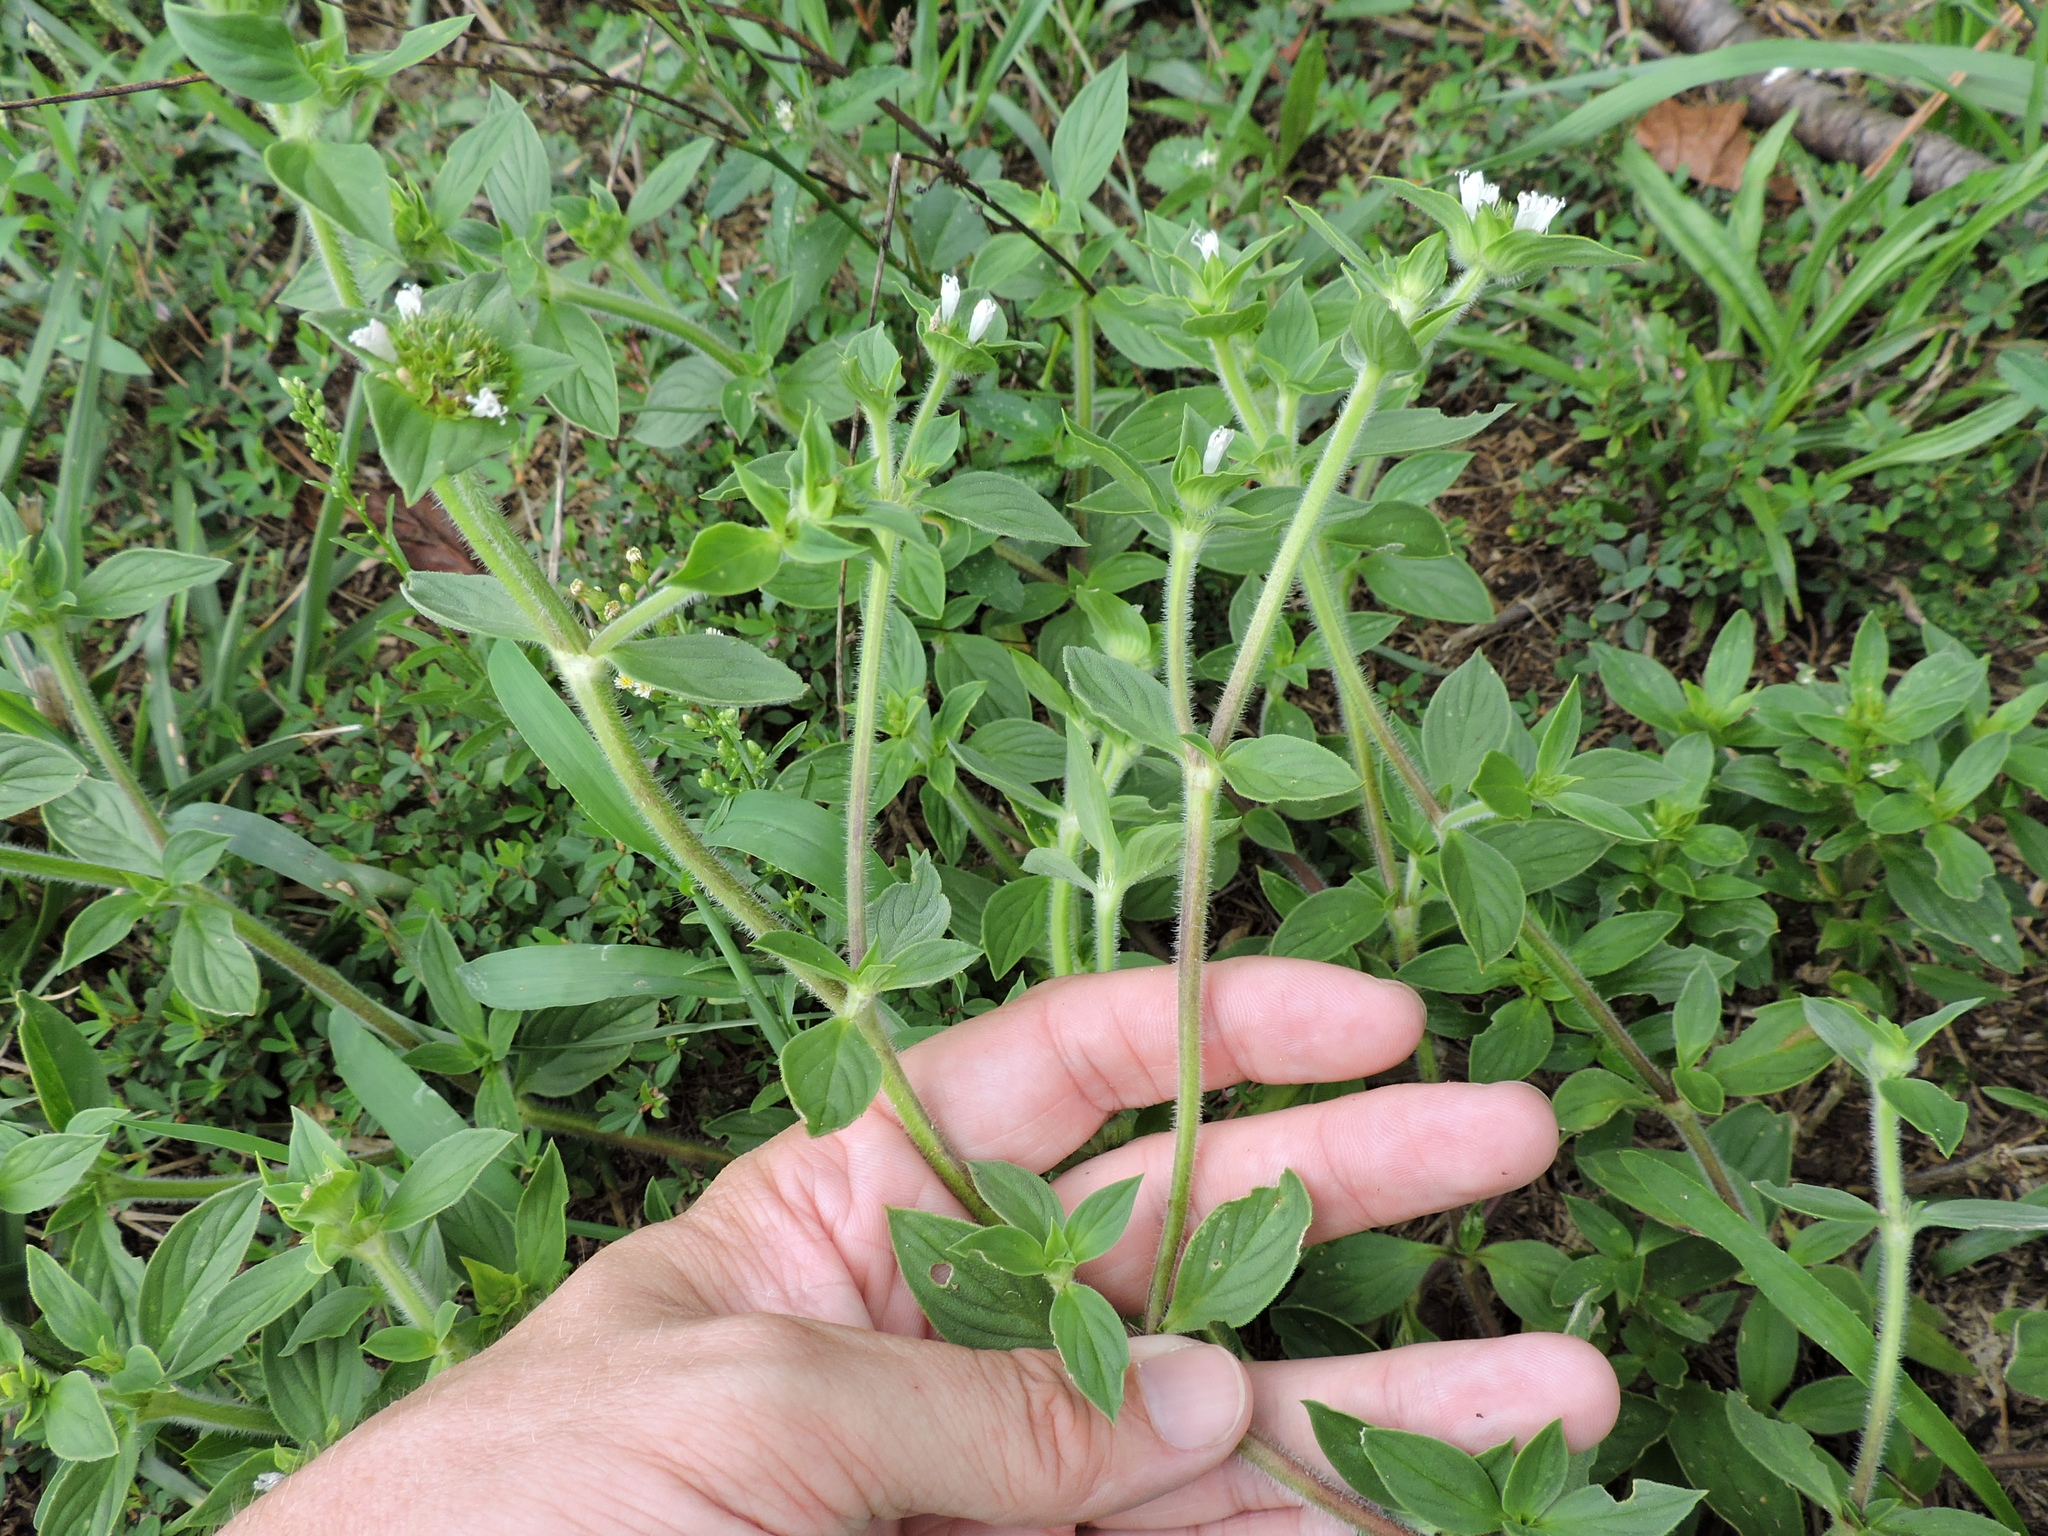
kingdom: Plantae
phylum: Tracheophyta
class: Magnoliopsida
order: Gentianales
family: Rubiaceae
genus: Richardia
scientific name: Richardia scabra
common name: Rough mexican clover
